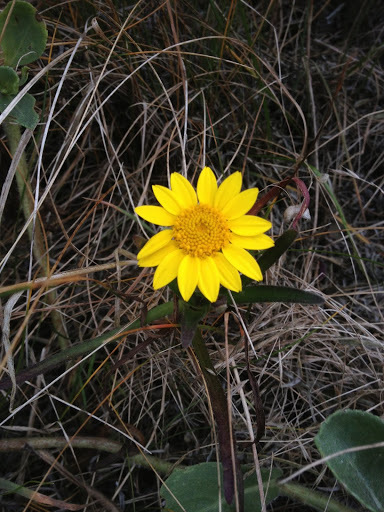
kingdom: Plantae
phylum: Tracheophyta
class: Magnoliopsida
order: Asterales
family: Asteraceae
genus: Lasthenia
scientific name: Lasthenia californica
